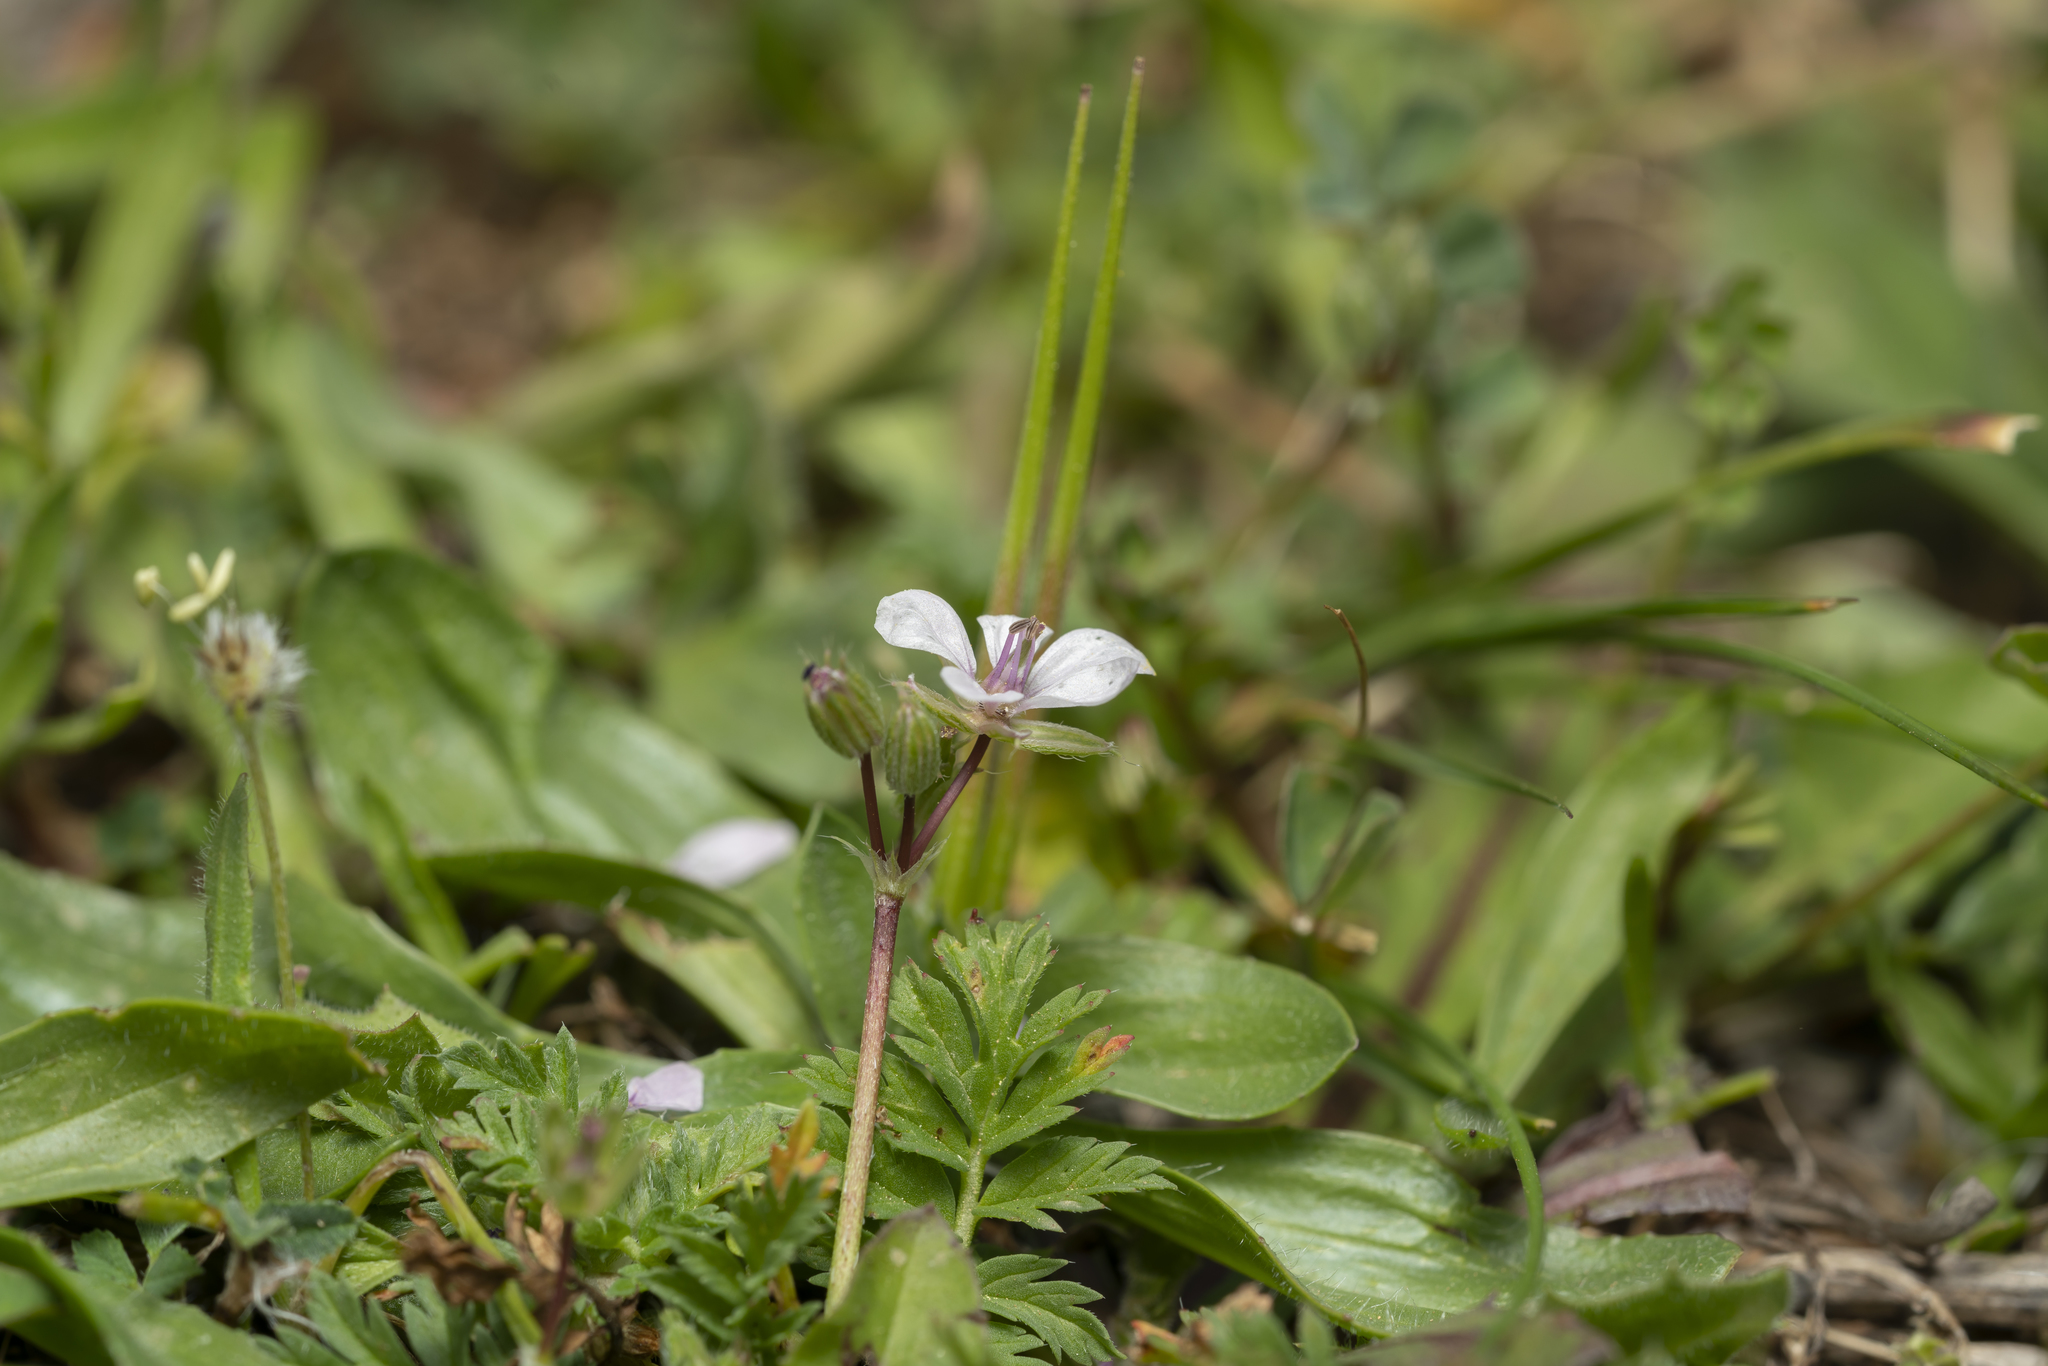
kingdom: Plantae
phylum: Tracheophyta
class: Magnoliopsida
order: Geraniales
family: Geraniaceae
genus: Erodium
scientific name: Erodium cicutarium
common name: Common stork's-bill
